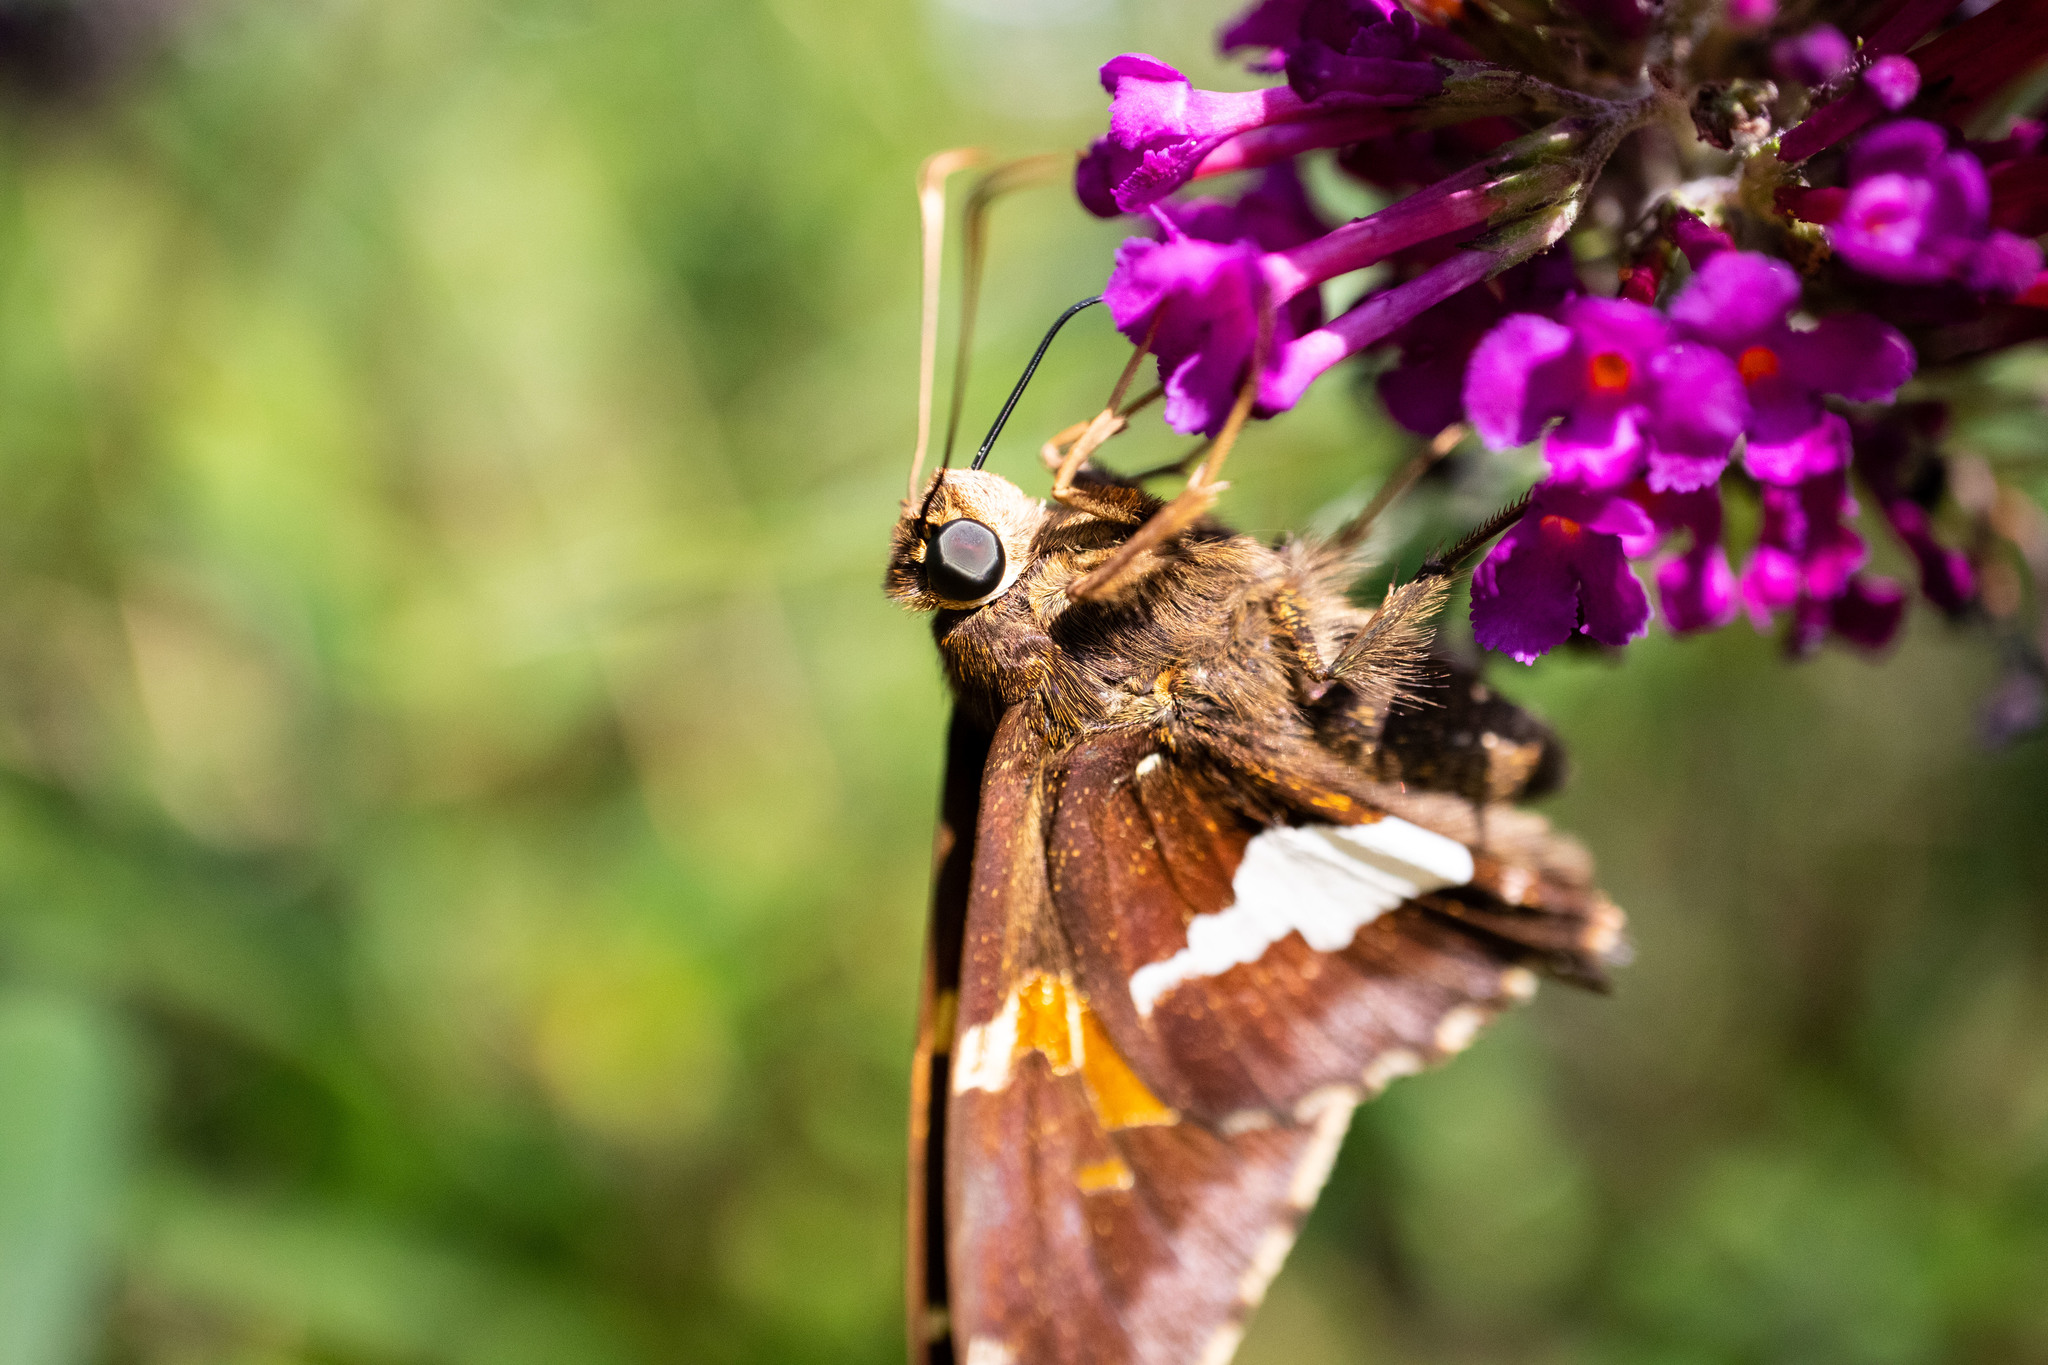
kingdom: Animalia
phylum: Arthropoda
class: Insecta
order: Lepidoptera
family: Hesperiidae
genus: Epargyreus
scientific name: Epargyreus clarus
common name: Silver-spotted skipper
